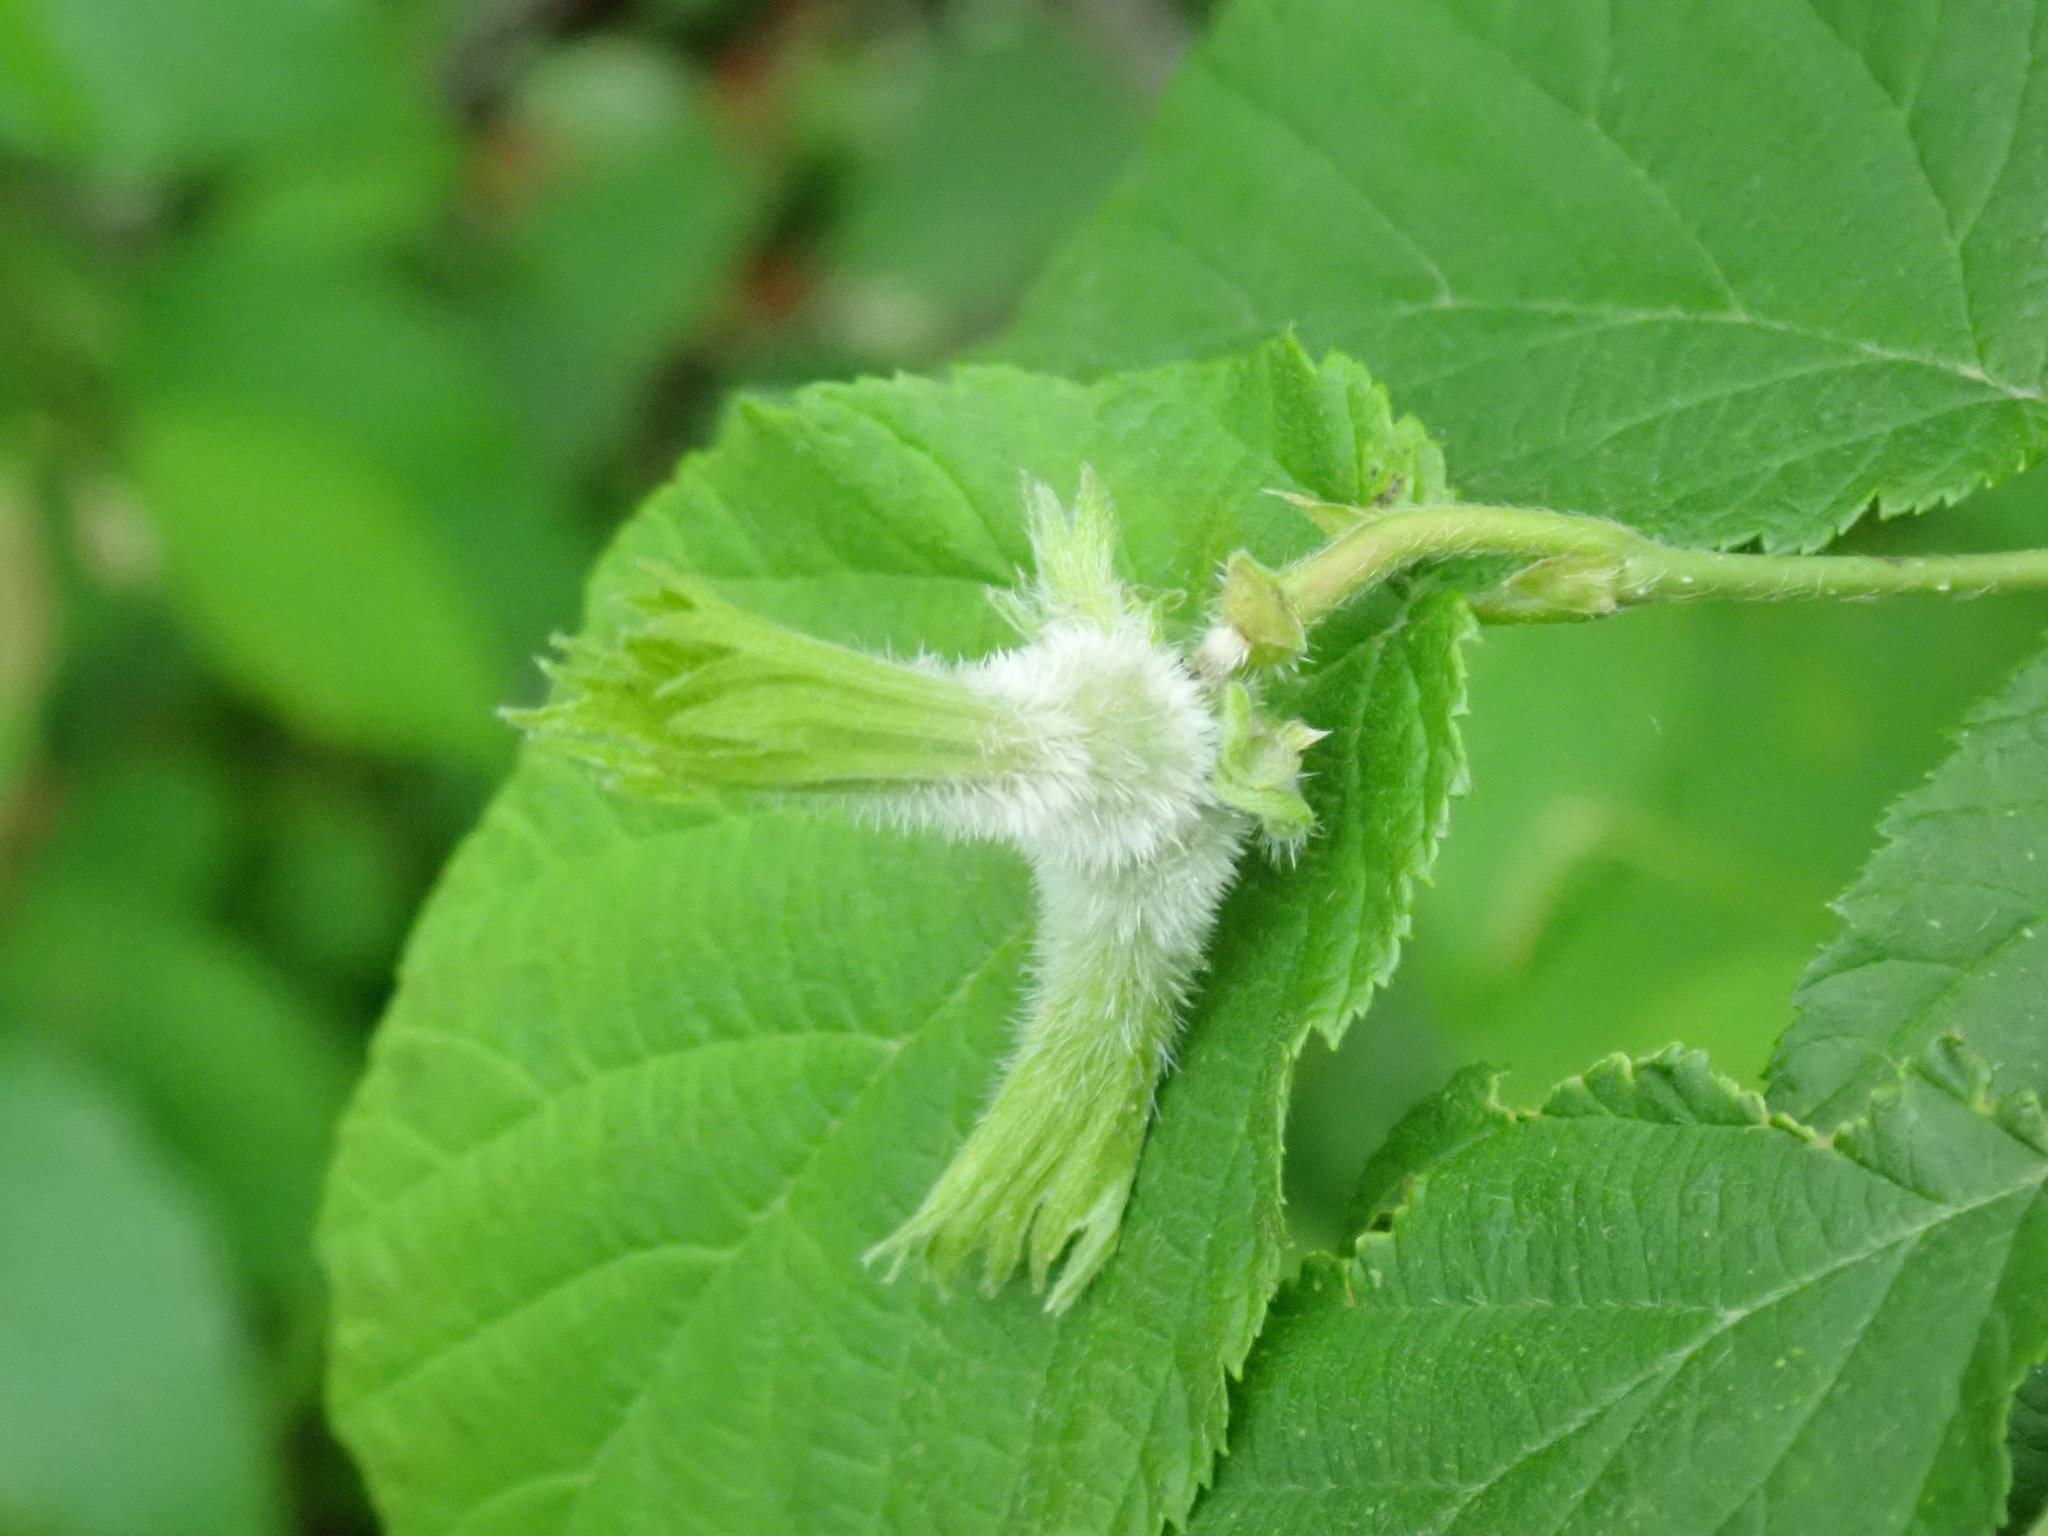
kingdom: Plantae
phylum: Tracheophyta
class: Magnoliopsida
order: Fagales
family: Betulaceae
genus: Corylus
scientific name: Corylus cornuta
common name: Beaked hazel
